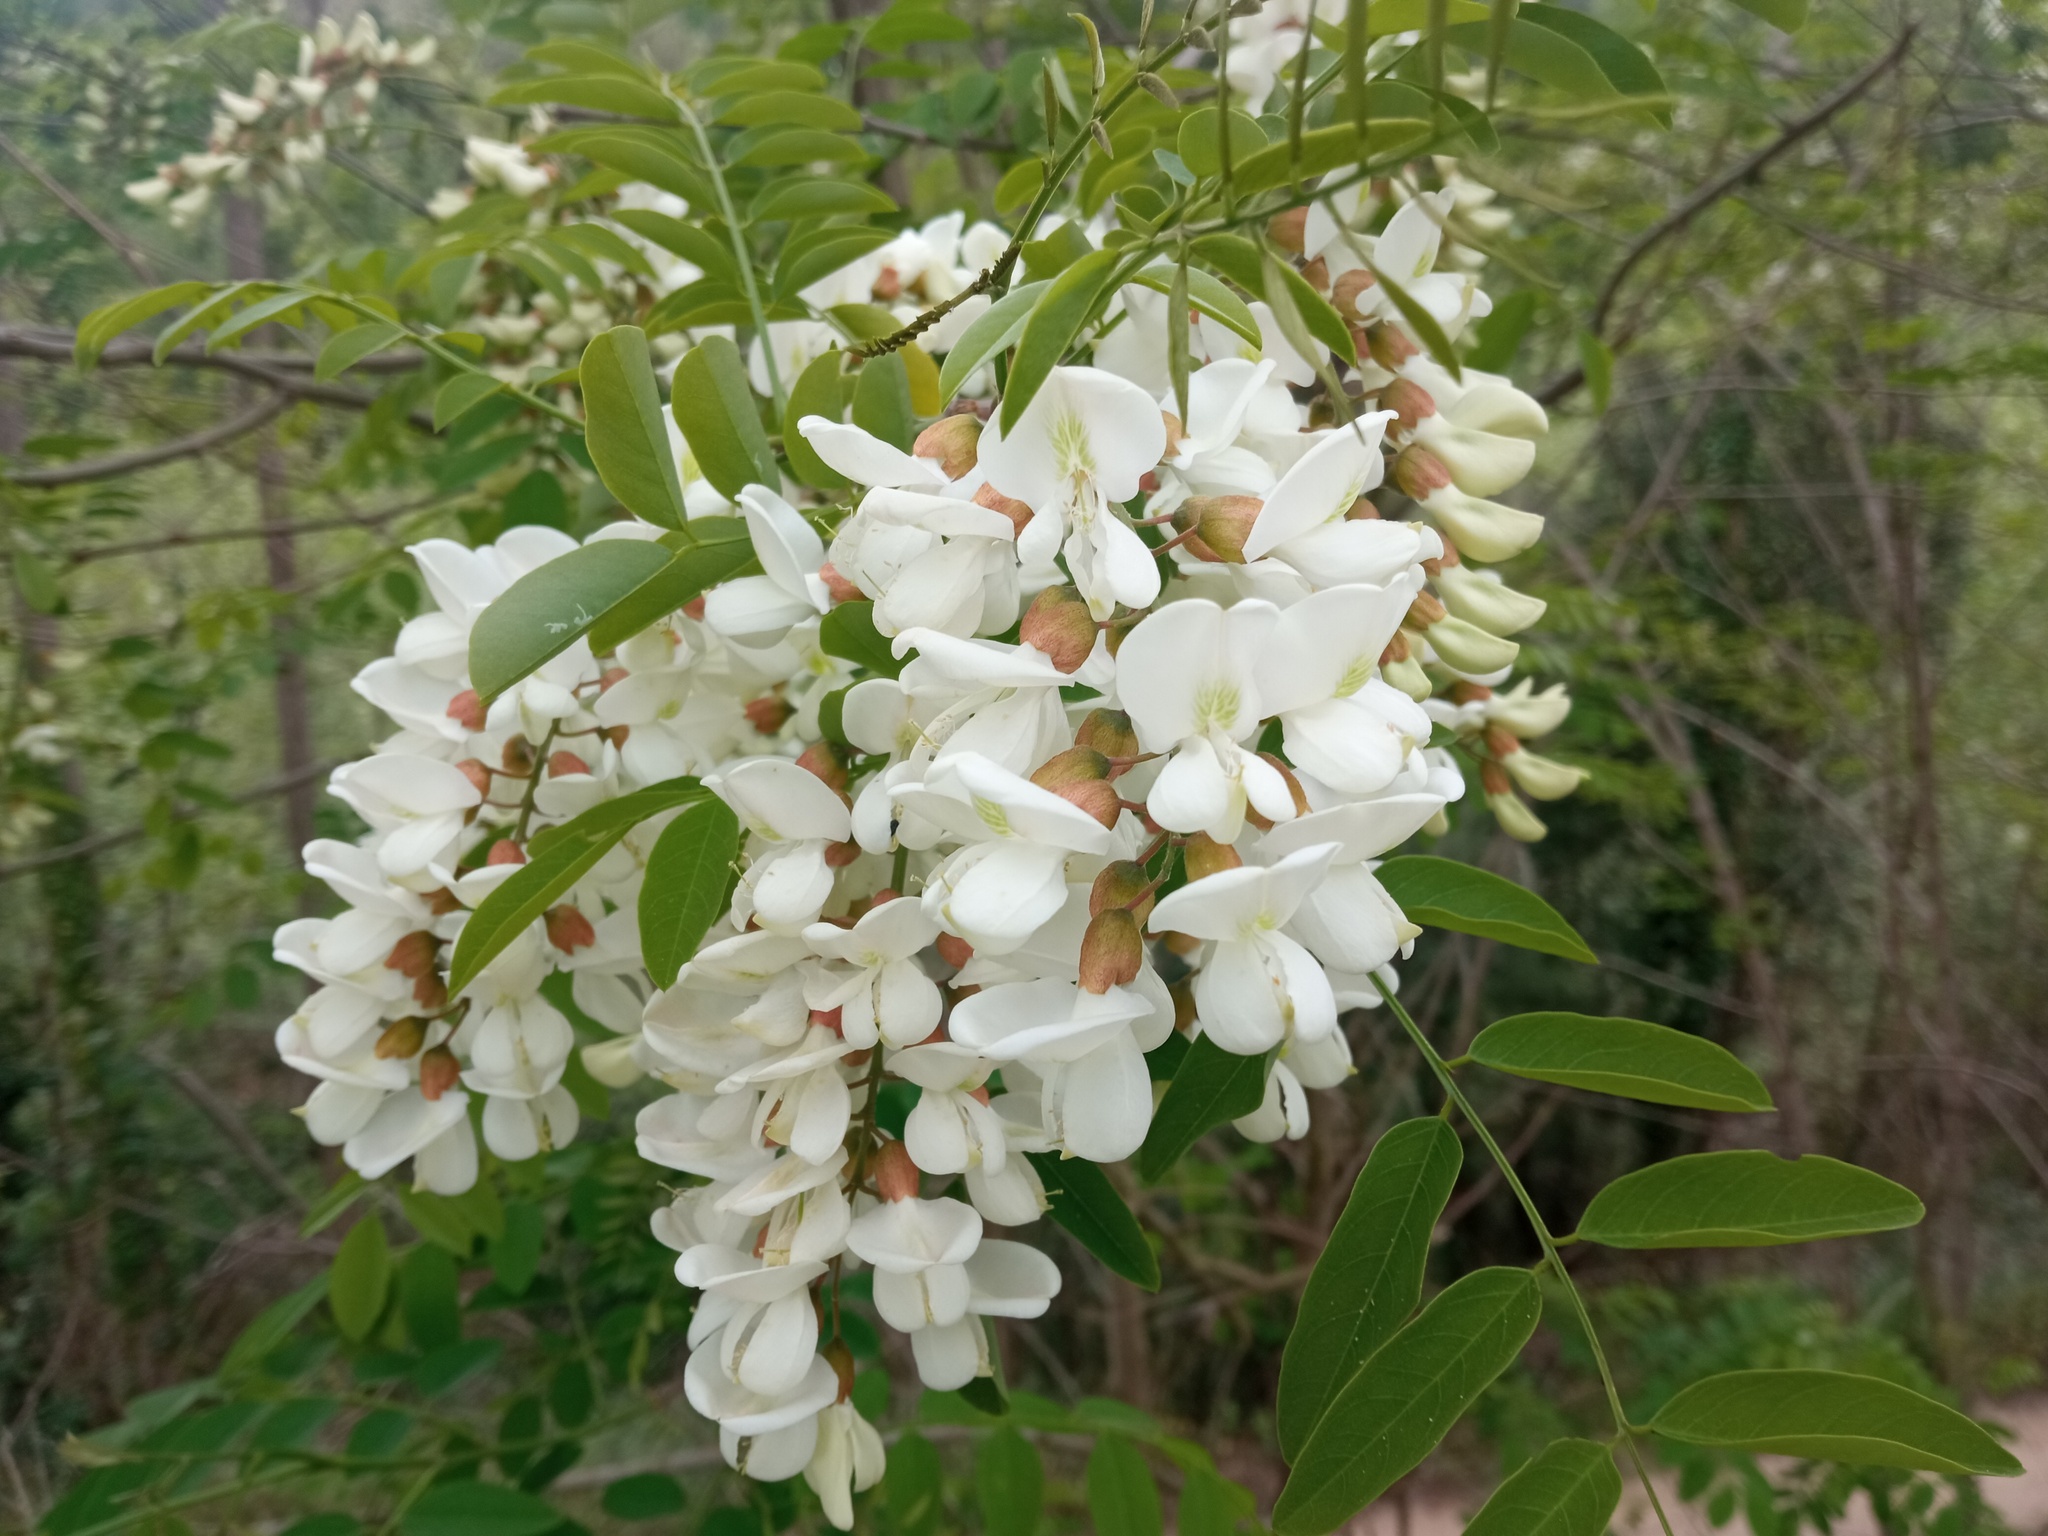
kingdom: Plantae
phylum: Tracheophyta
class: Magnoliopsida
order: Fabales
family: Fabaceae
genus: Robinia
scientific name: Robinia pseudoacacia
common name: Black locust
